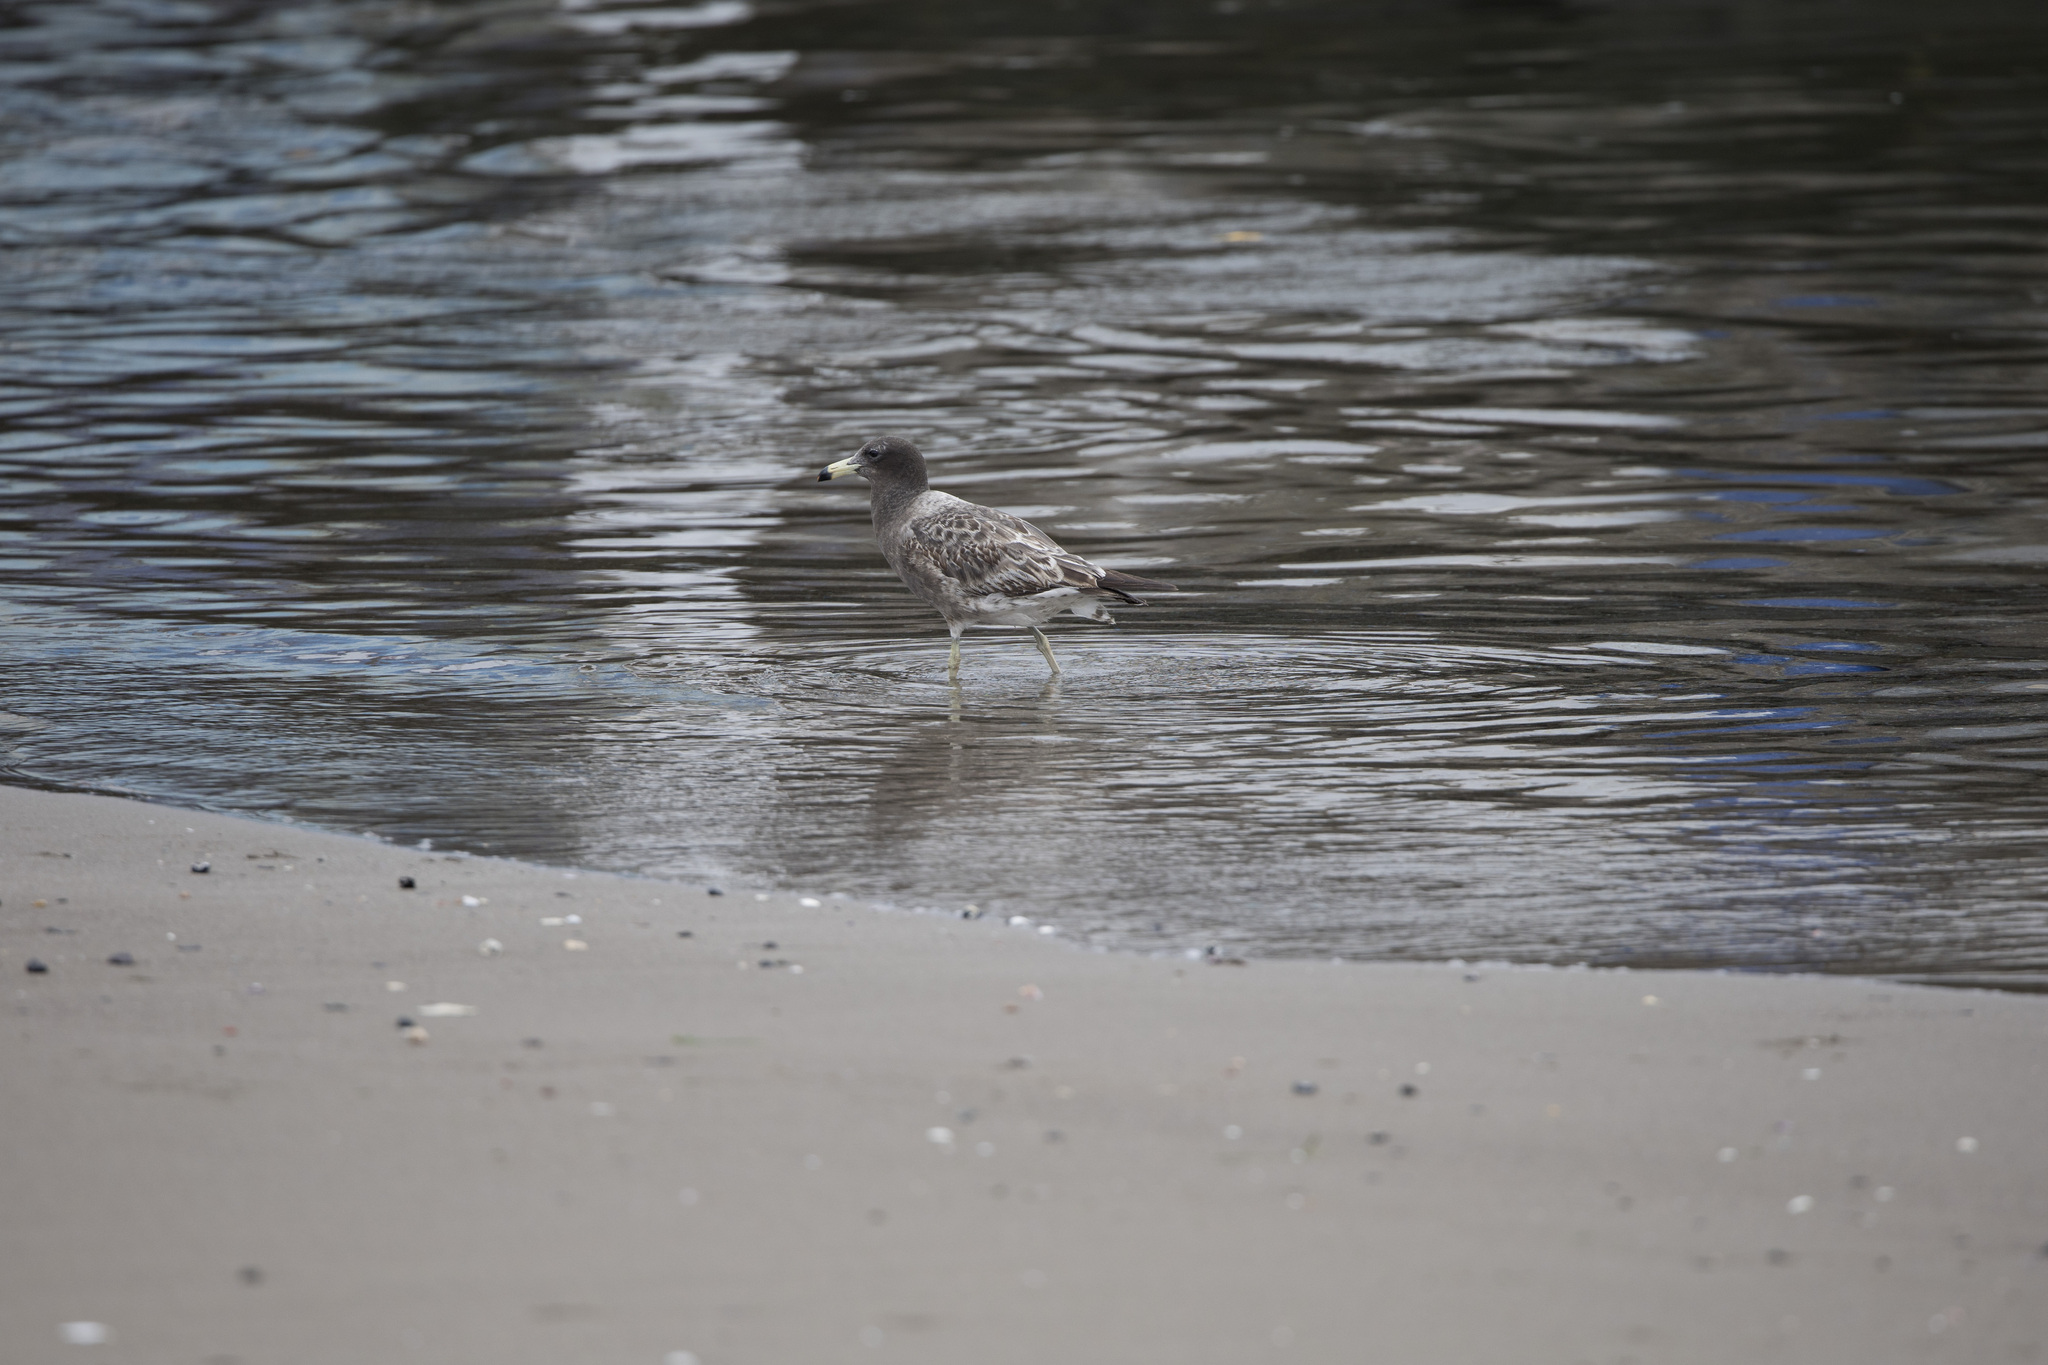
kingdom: Animalia
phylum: Chordata
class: Aves
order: Charadriiformes
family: Laridae
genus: Larus
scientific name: Larus belcheri
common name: Belcher's gull
